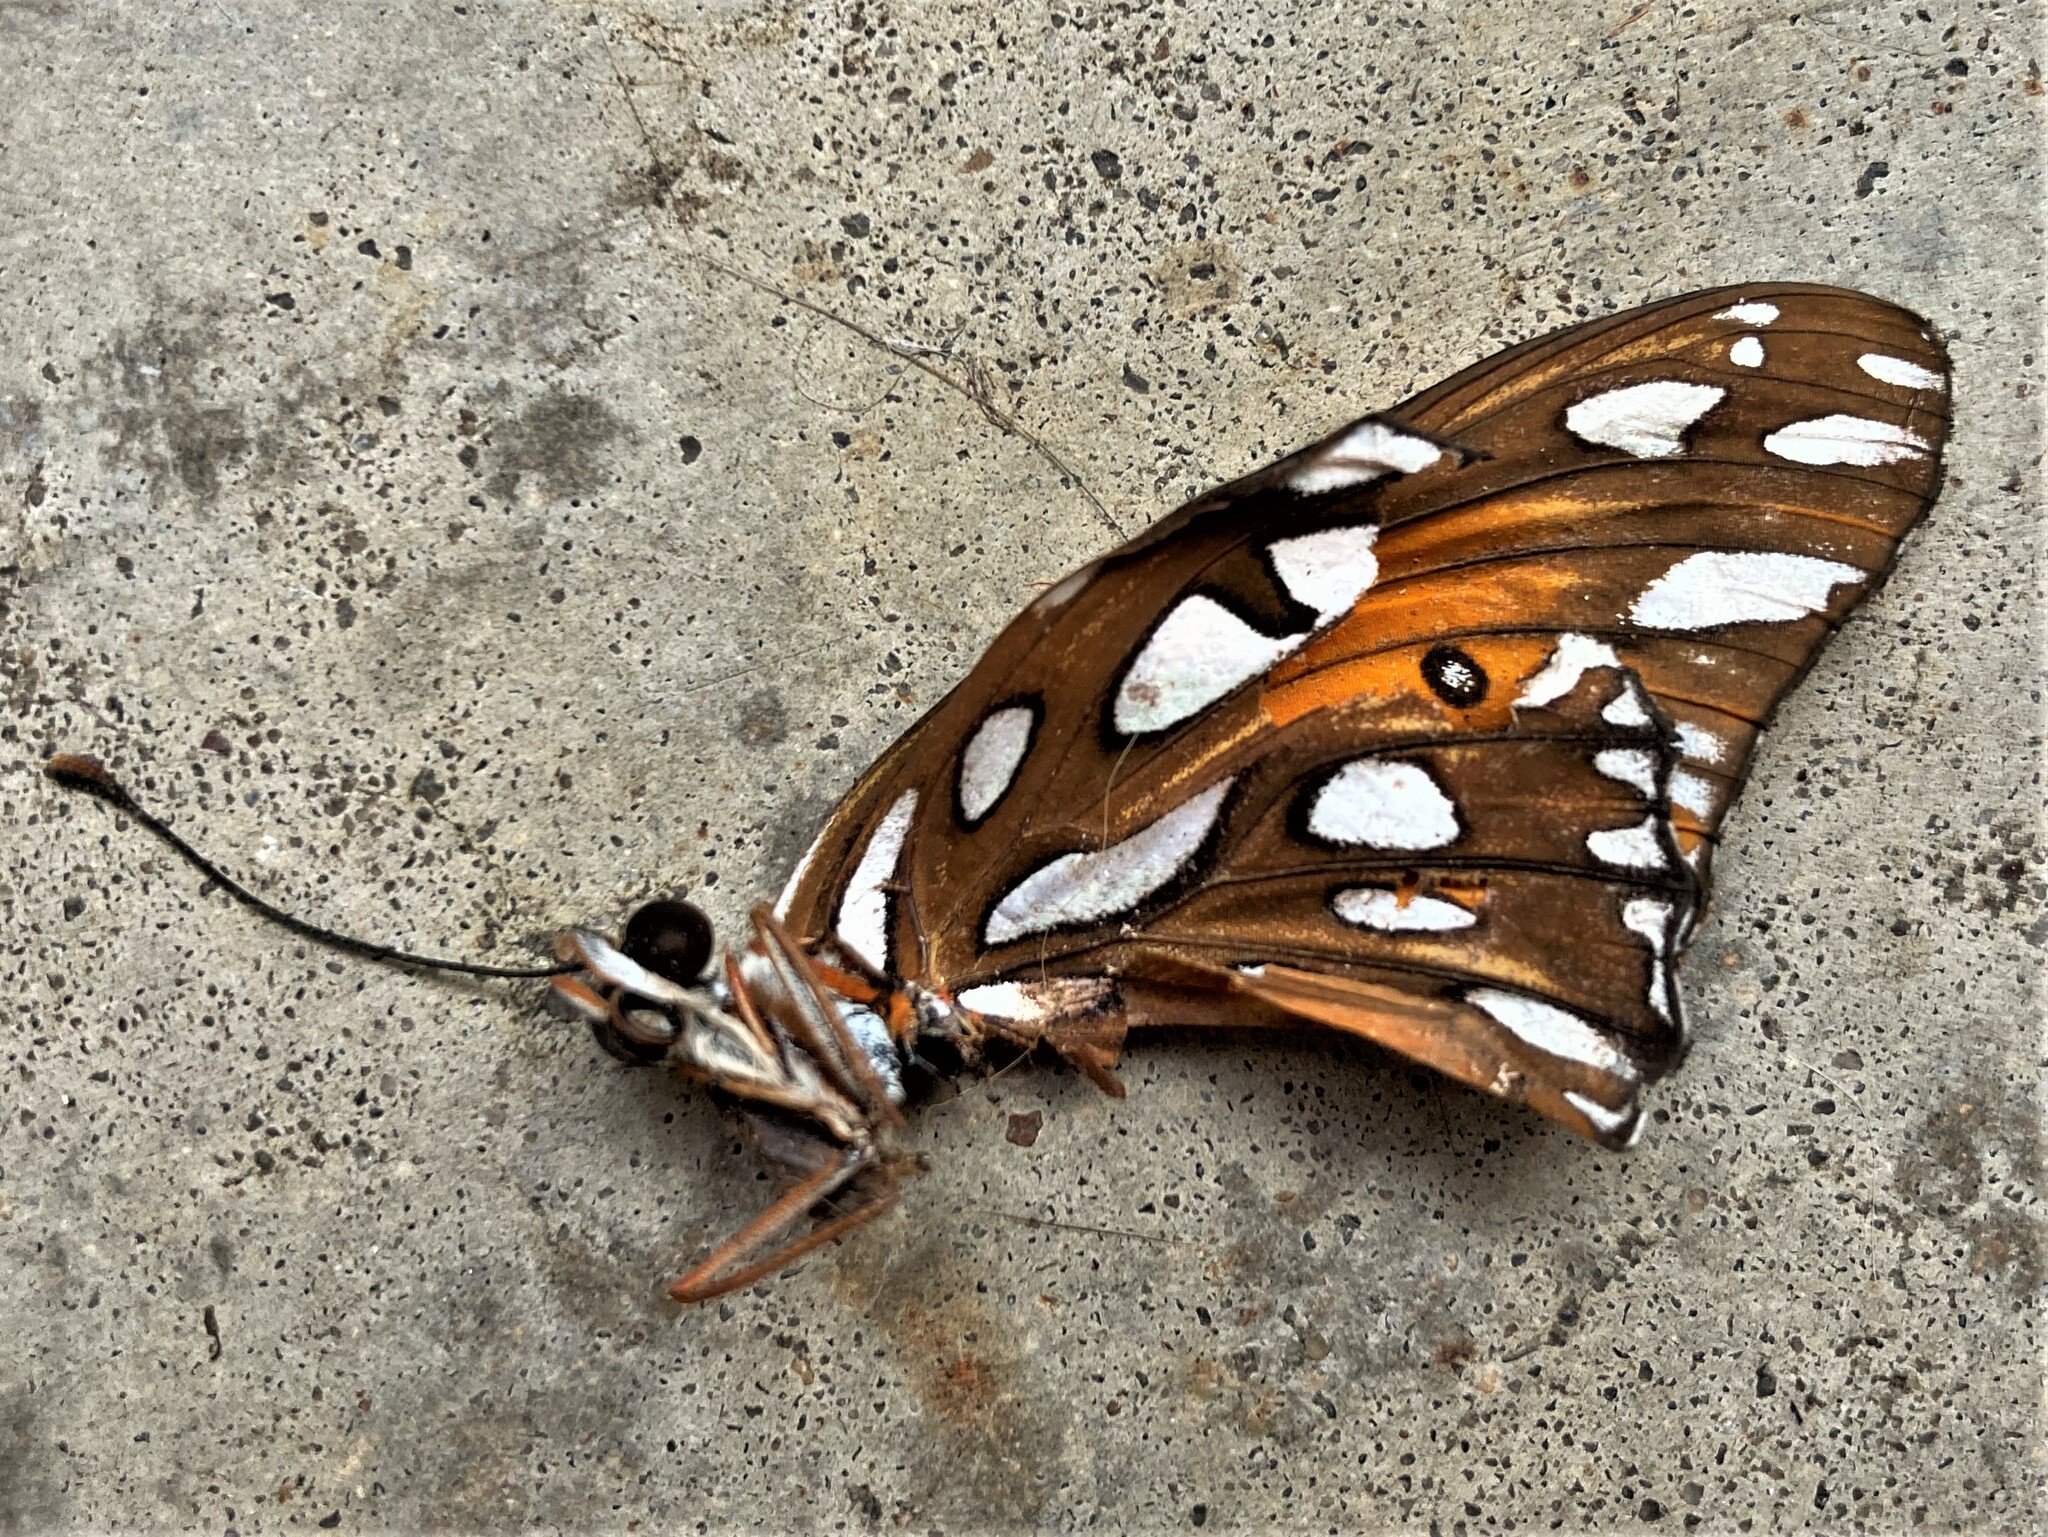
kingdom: Animalia
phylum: Arthropoda
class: Insecta
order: Lepidoptera
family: Nymphalidae
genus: Dione
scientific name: Dione vanillae
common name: Gulf fritillary
